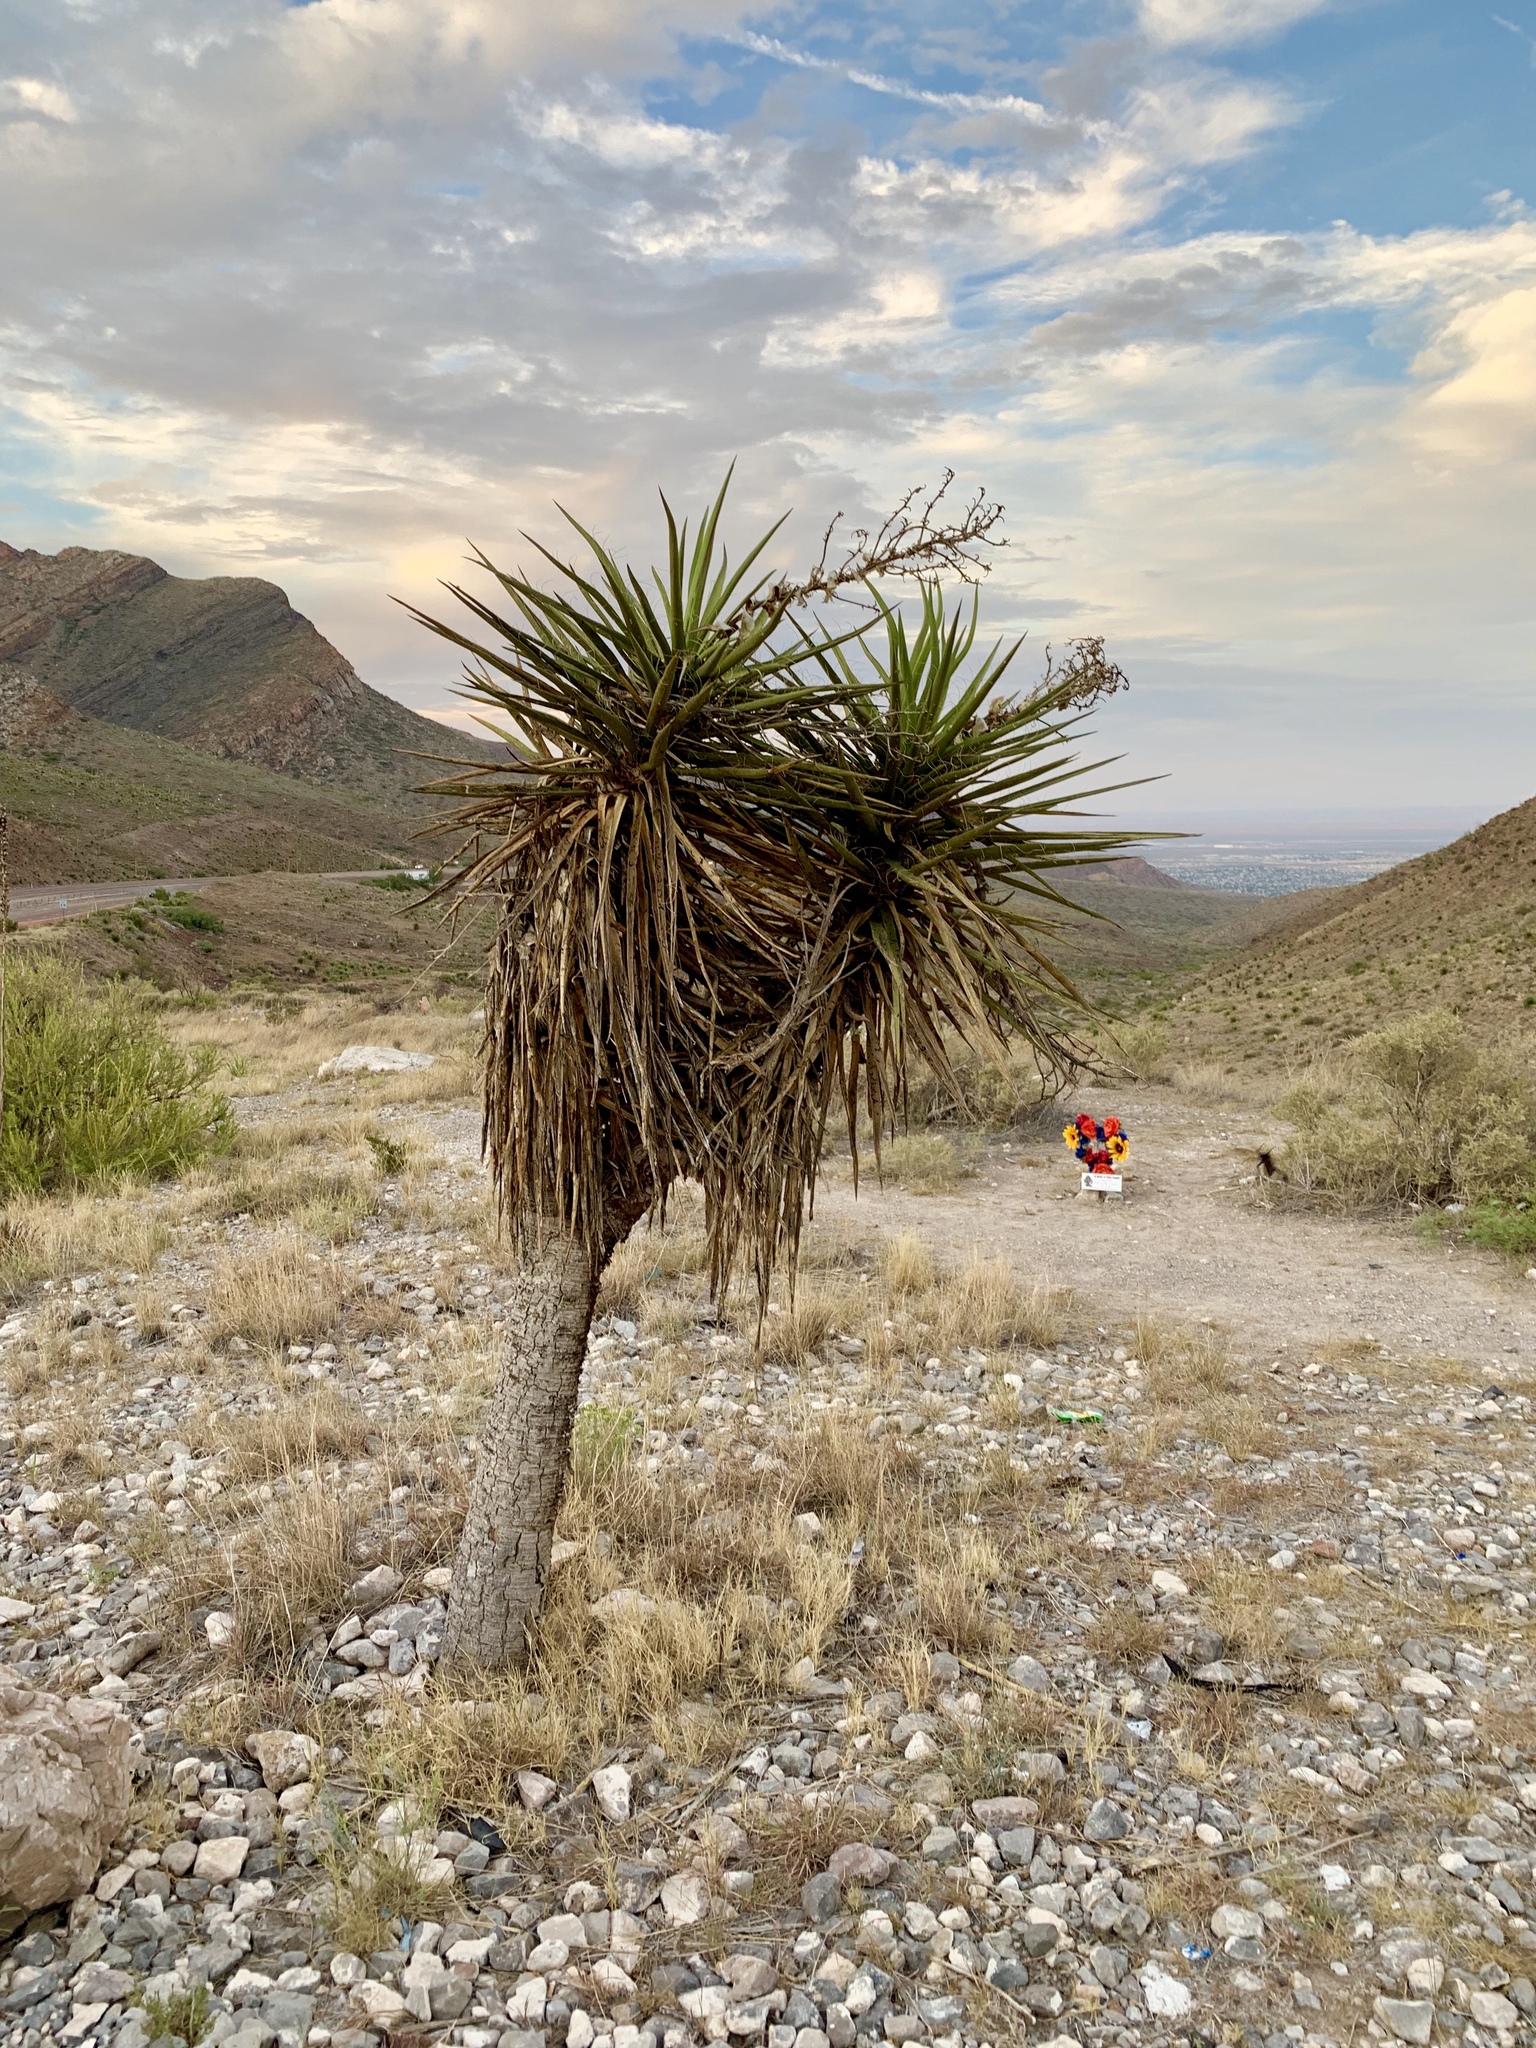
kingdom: Plantae
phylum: Tracheophyta
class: Liliopsida
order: Asparagales
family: Asparagaceae
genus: Yucca
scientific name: Yucca treculiana
